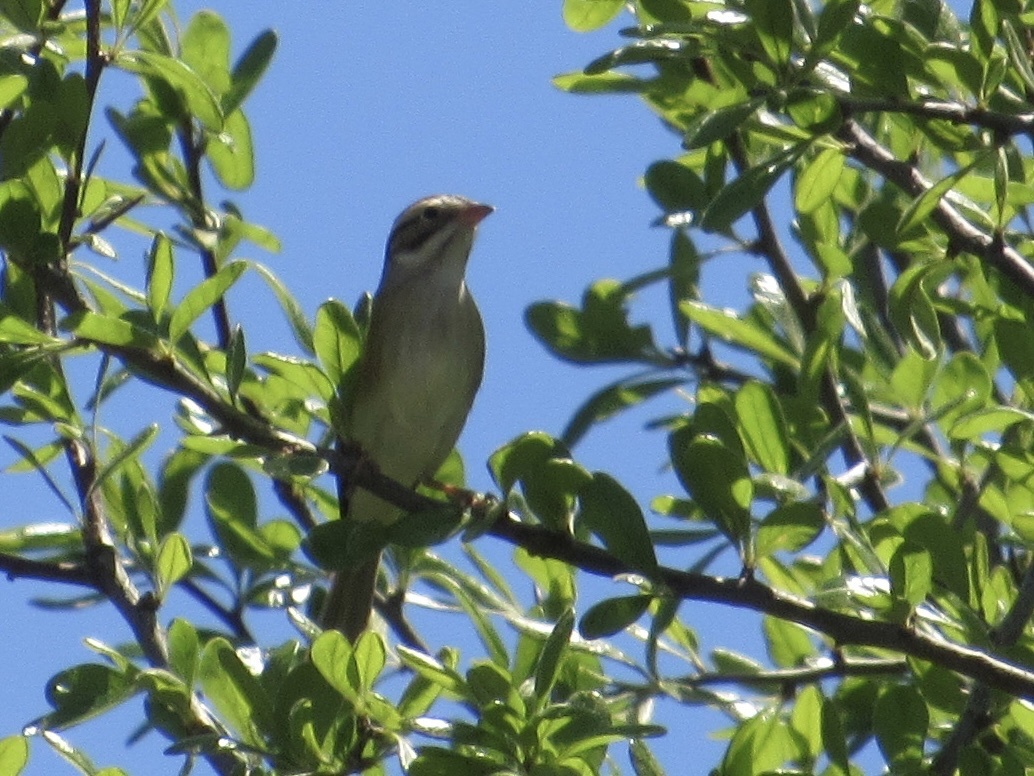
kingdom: Animalia
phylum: Chordata
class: Aves
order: Passeriformes
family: Passerellidae
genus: Spizella
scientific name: Spizella pallida
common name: Clay-colored sparrow
